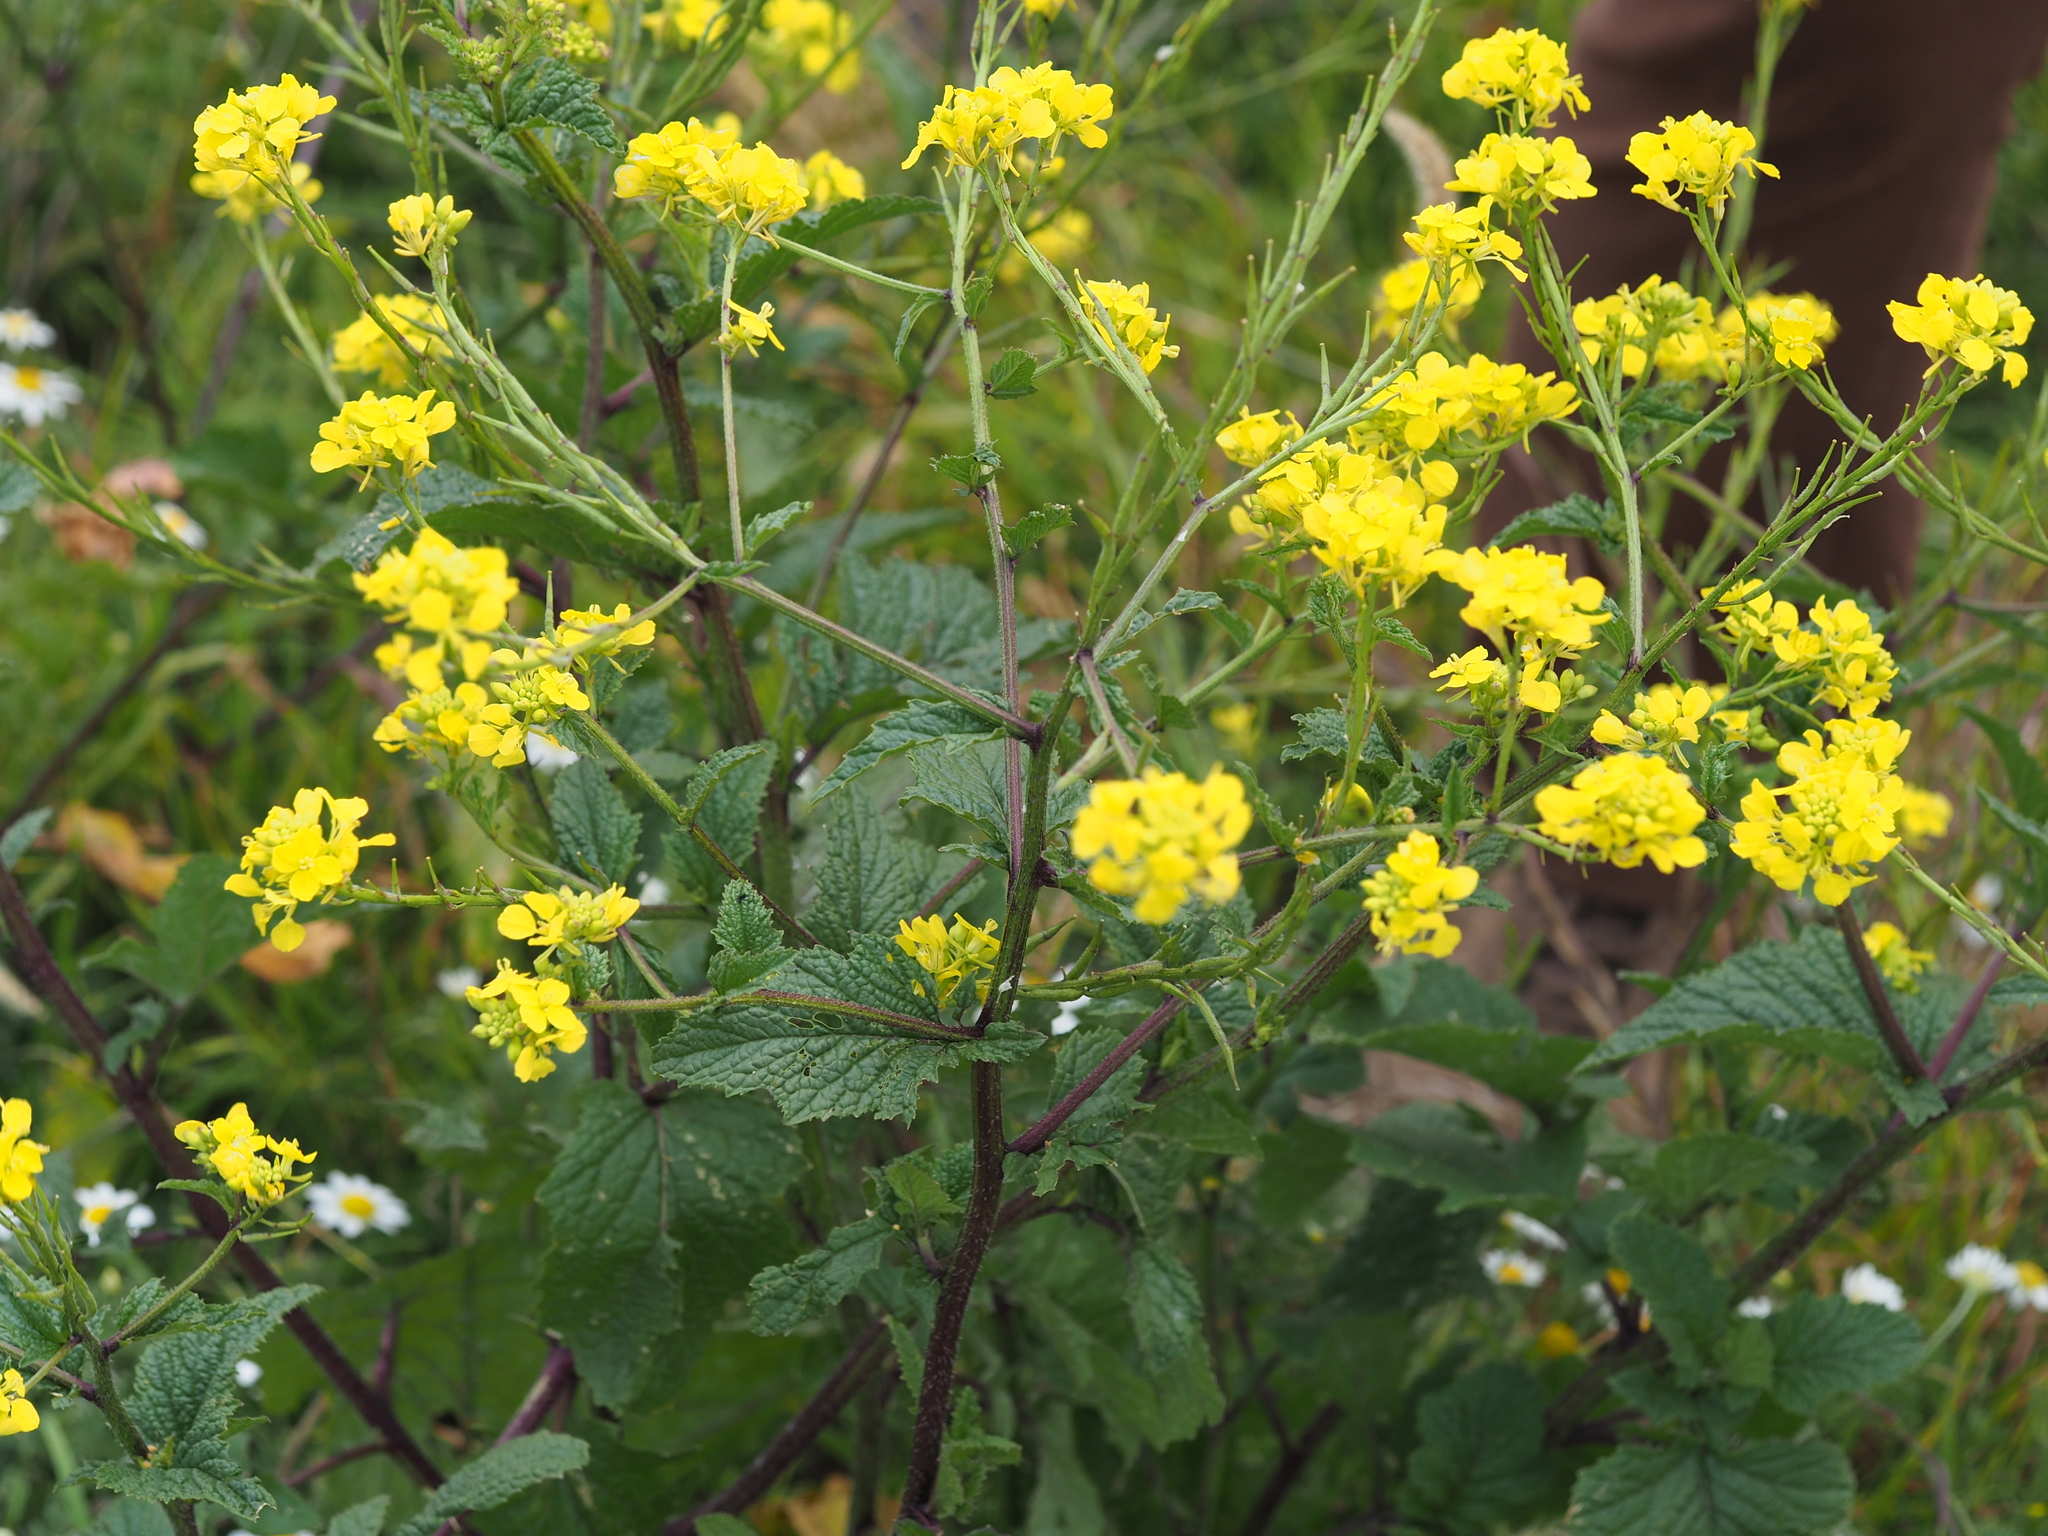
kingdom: Plantae
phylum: Tracheophyta
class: Magnoliopsida
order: Brassicales
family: Brassicaceae
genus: Sinapis
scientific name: Sinapis arvensis
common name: Charlock
